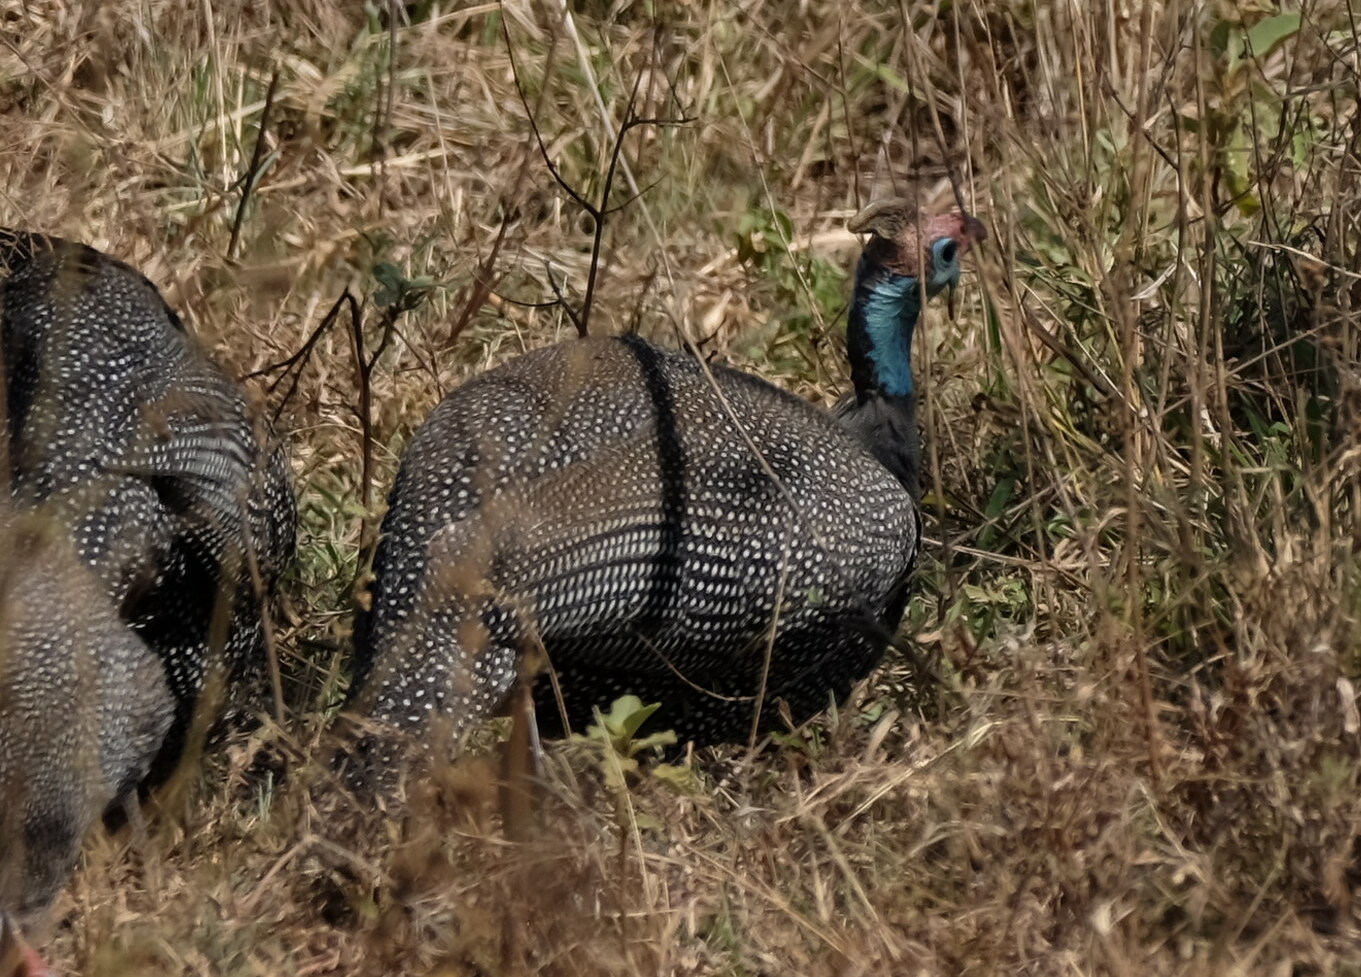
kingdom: Animalia
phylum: Chordata
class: Aves
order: Galliformes
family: Numididae
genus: Numida
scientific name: Numida meleagris
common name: Helmeted guineafowl
